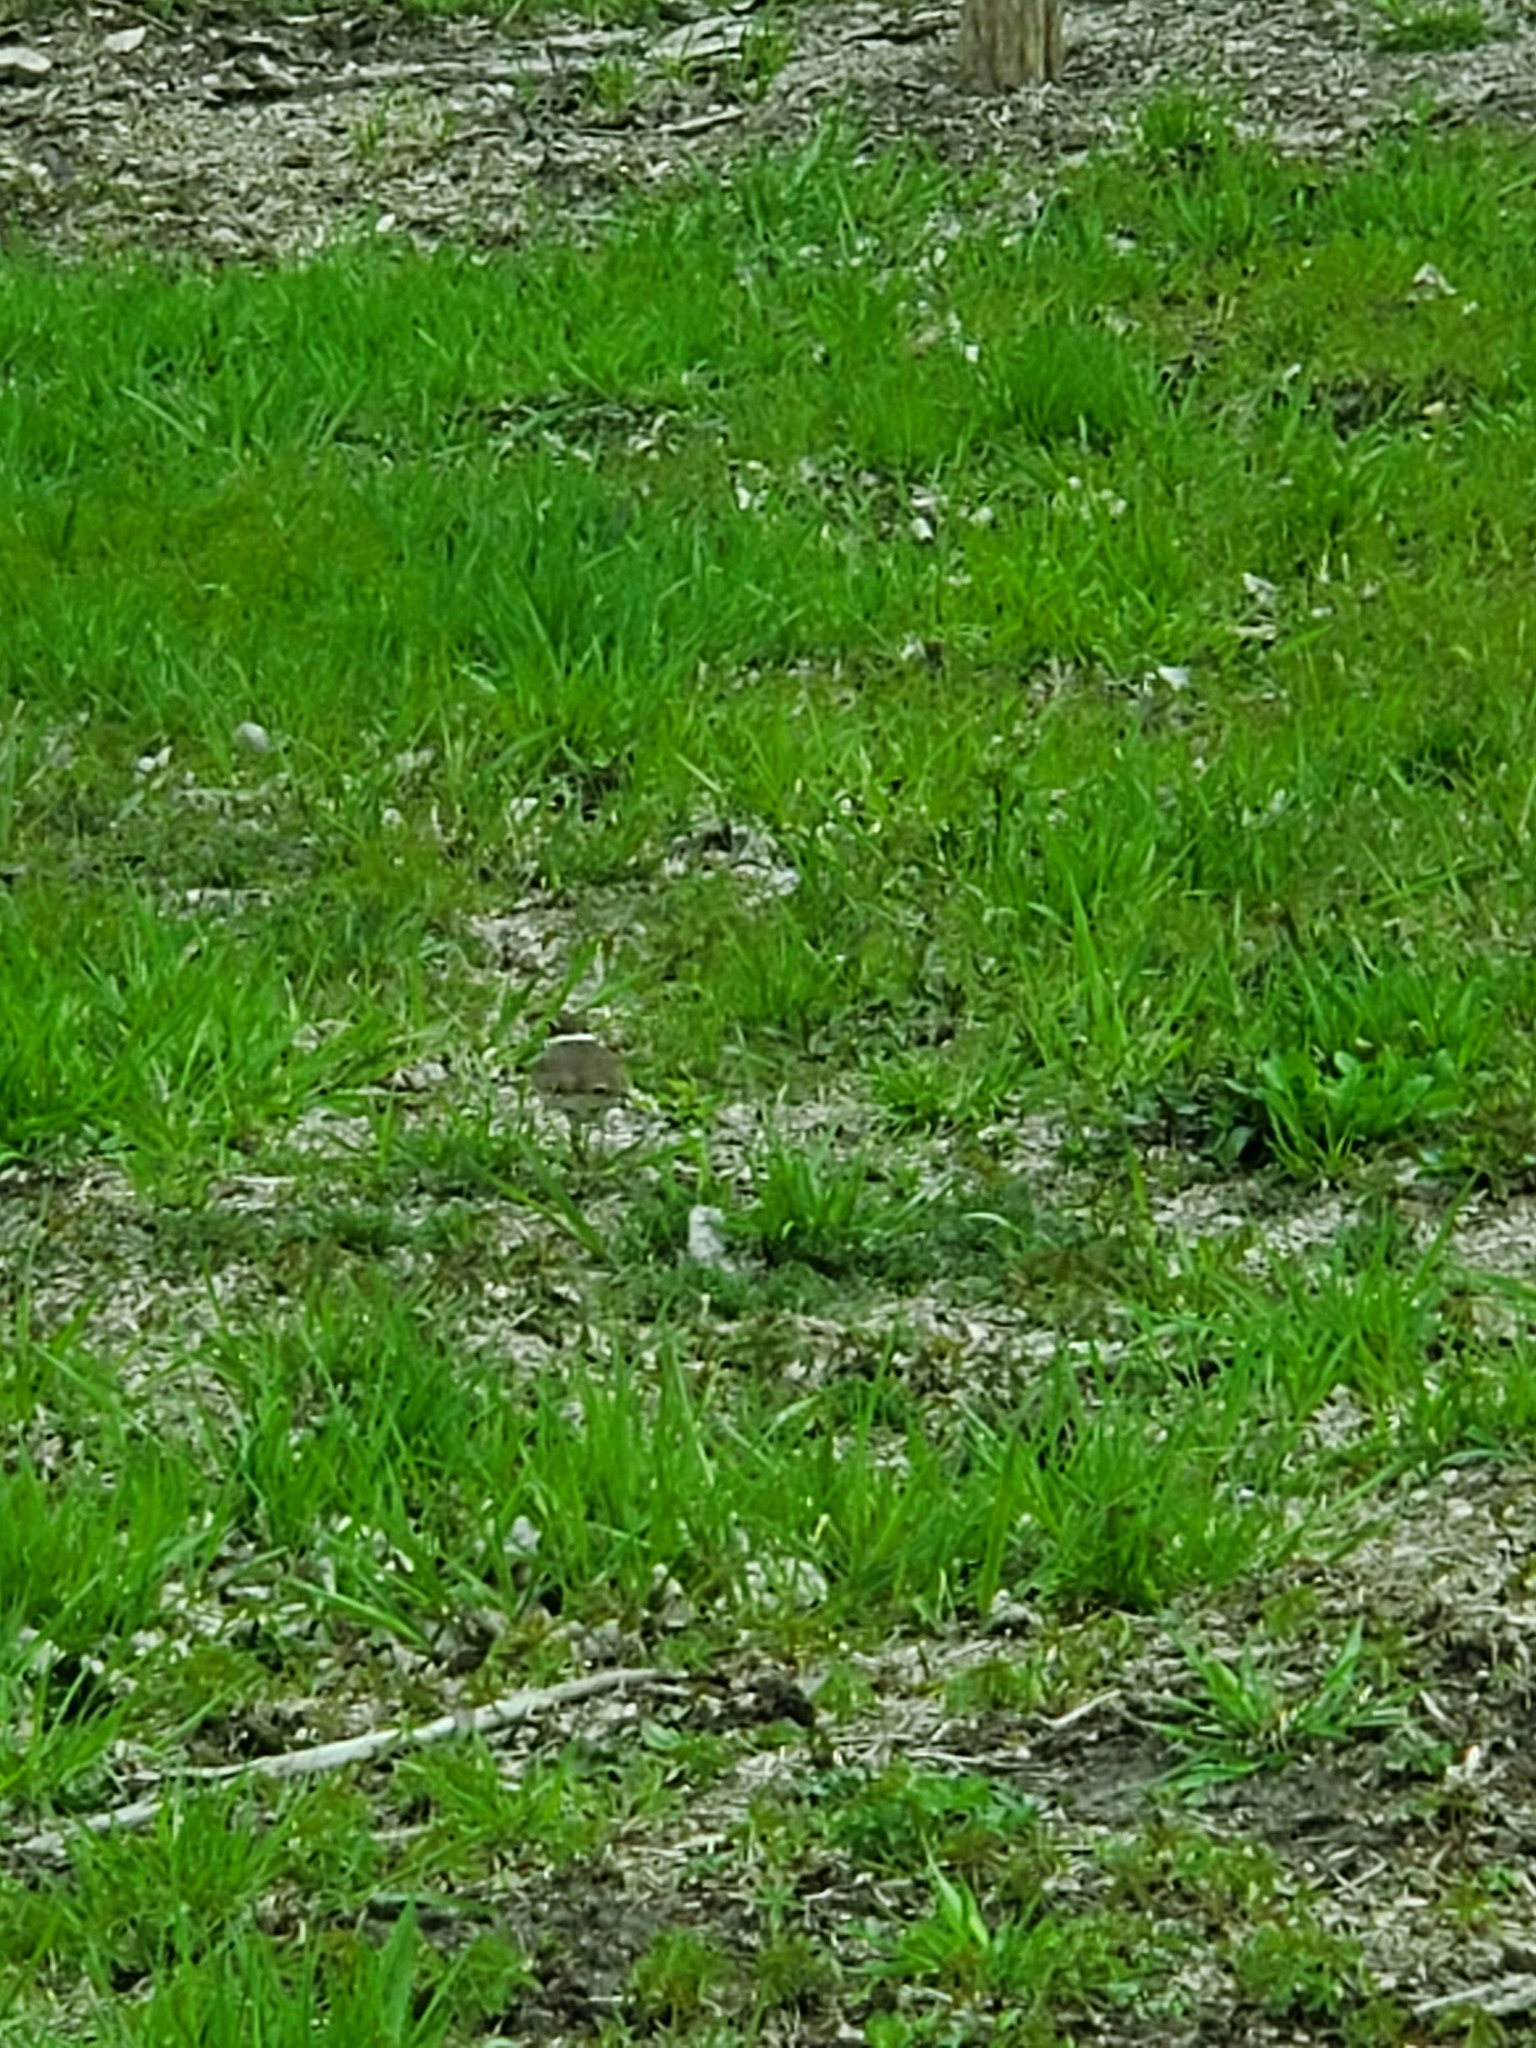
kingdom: Animalia
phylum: Chordata
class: Aves
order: Charadriiformes
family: Charadriidae
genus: Charadrius
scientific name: Charadrius vociferus
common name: Killdeer
